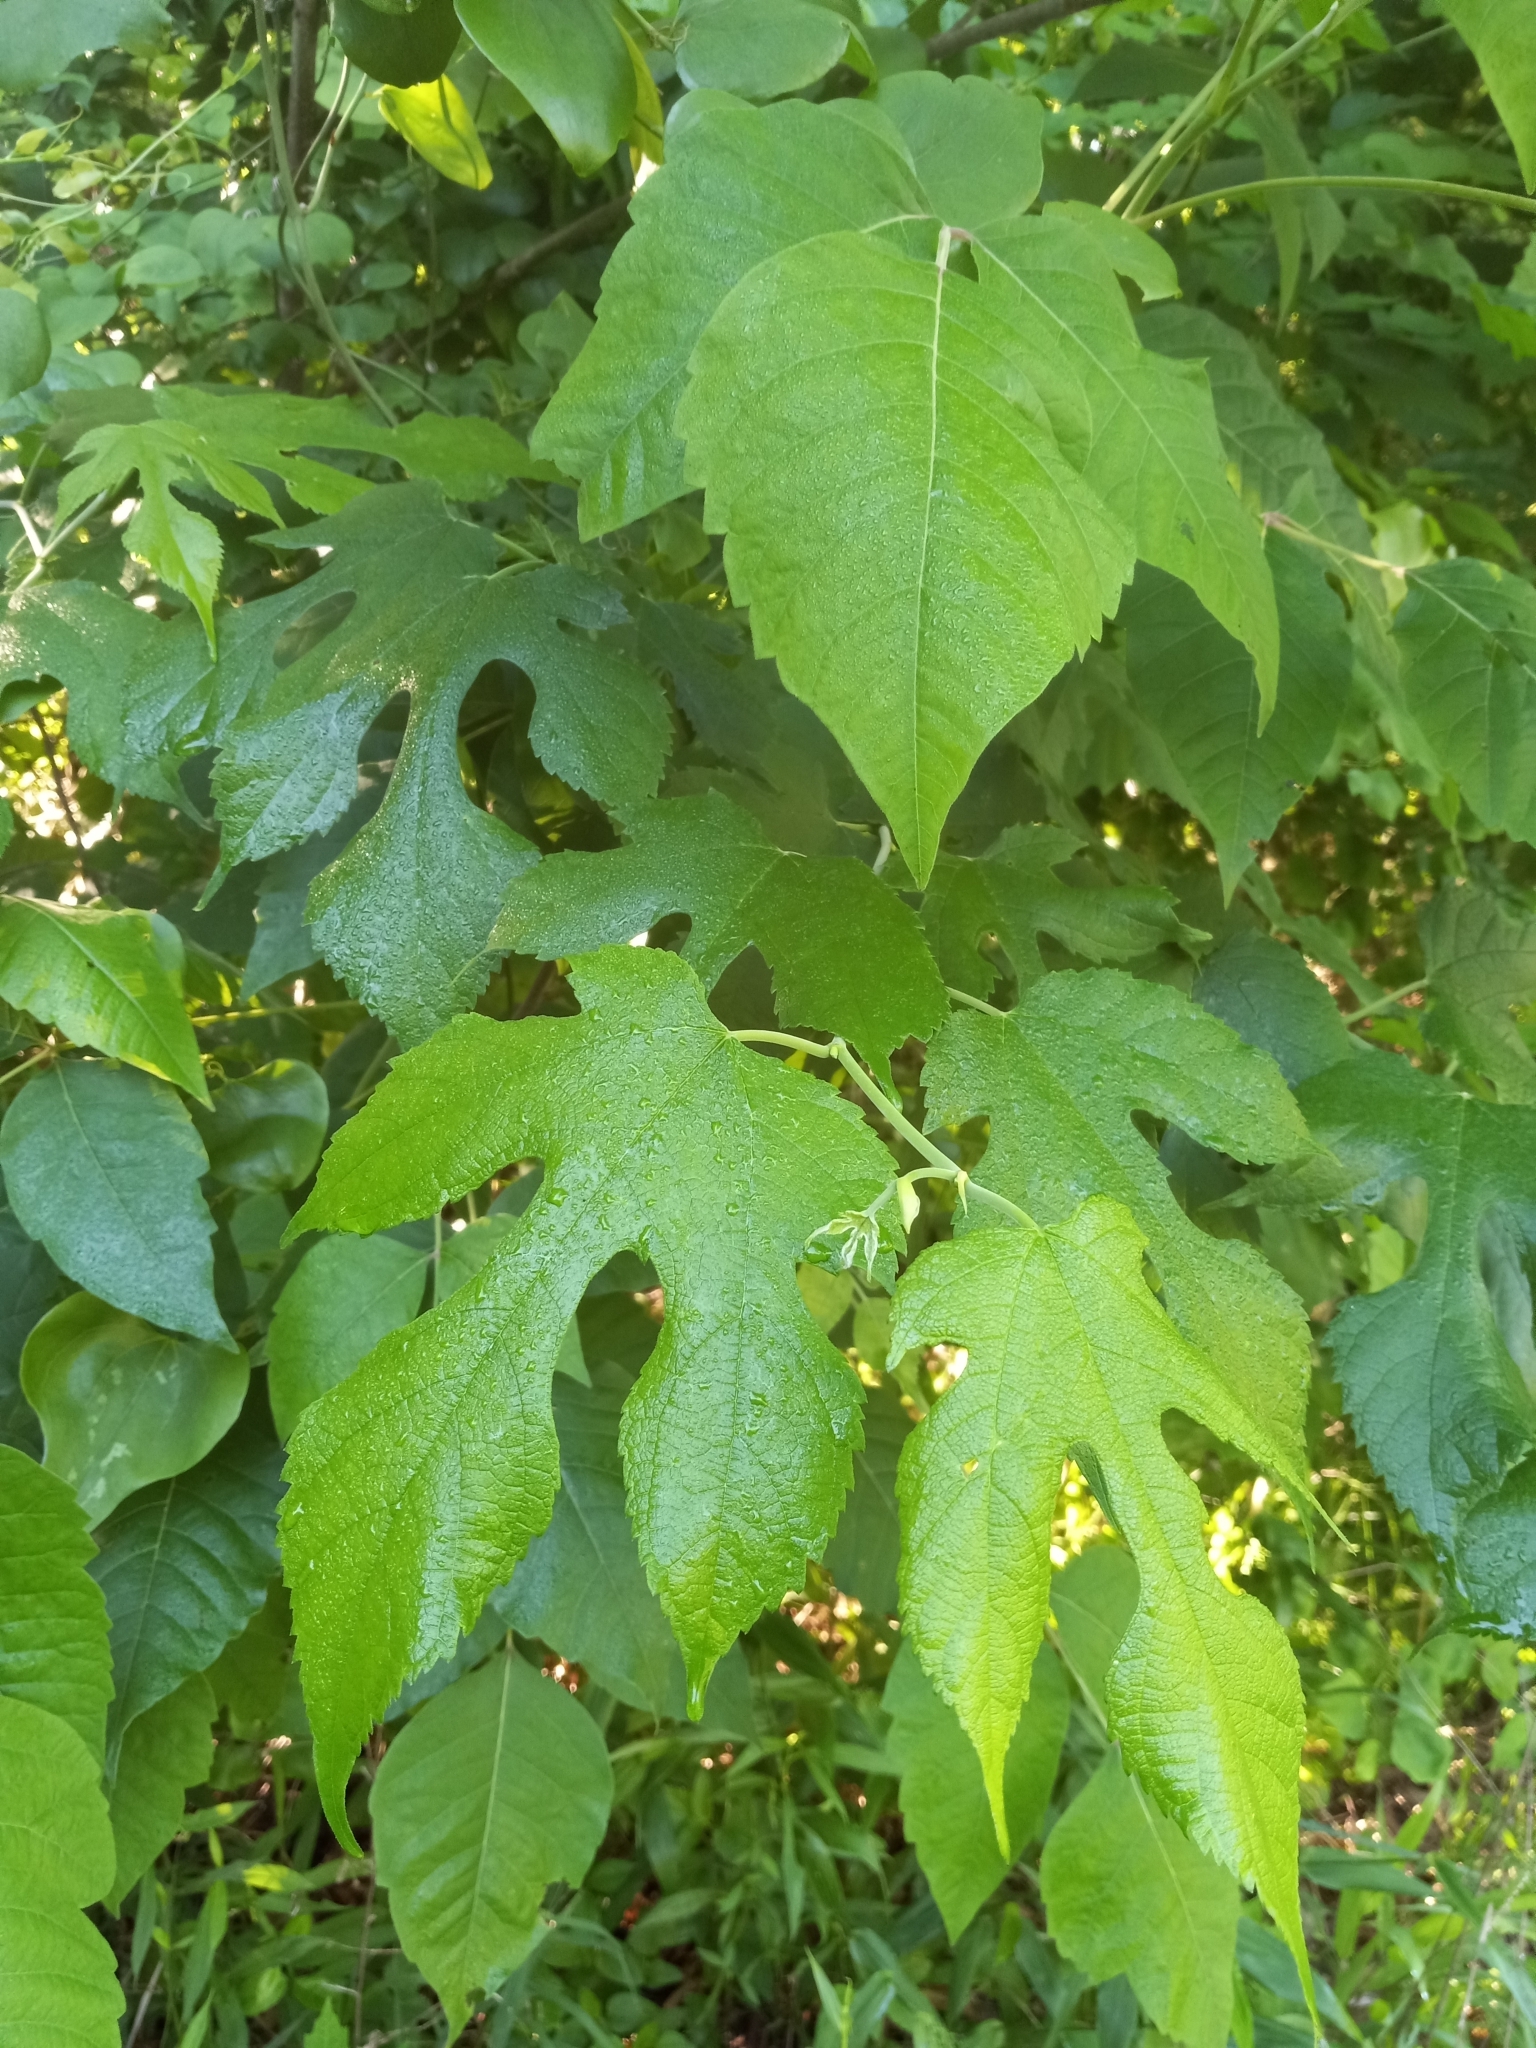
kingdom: Plantae
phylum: Tracheophyta
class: Magnoliopsida
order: Rosales
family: Moraceae
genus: Morus
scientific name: Morus rubra
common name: Red mulberry
